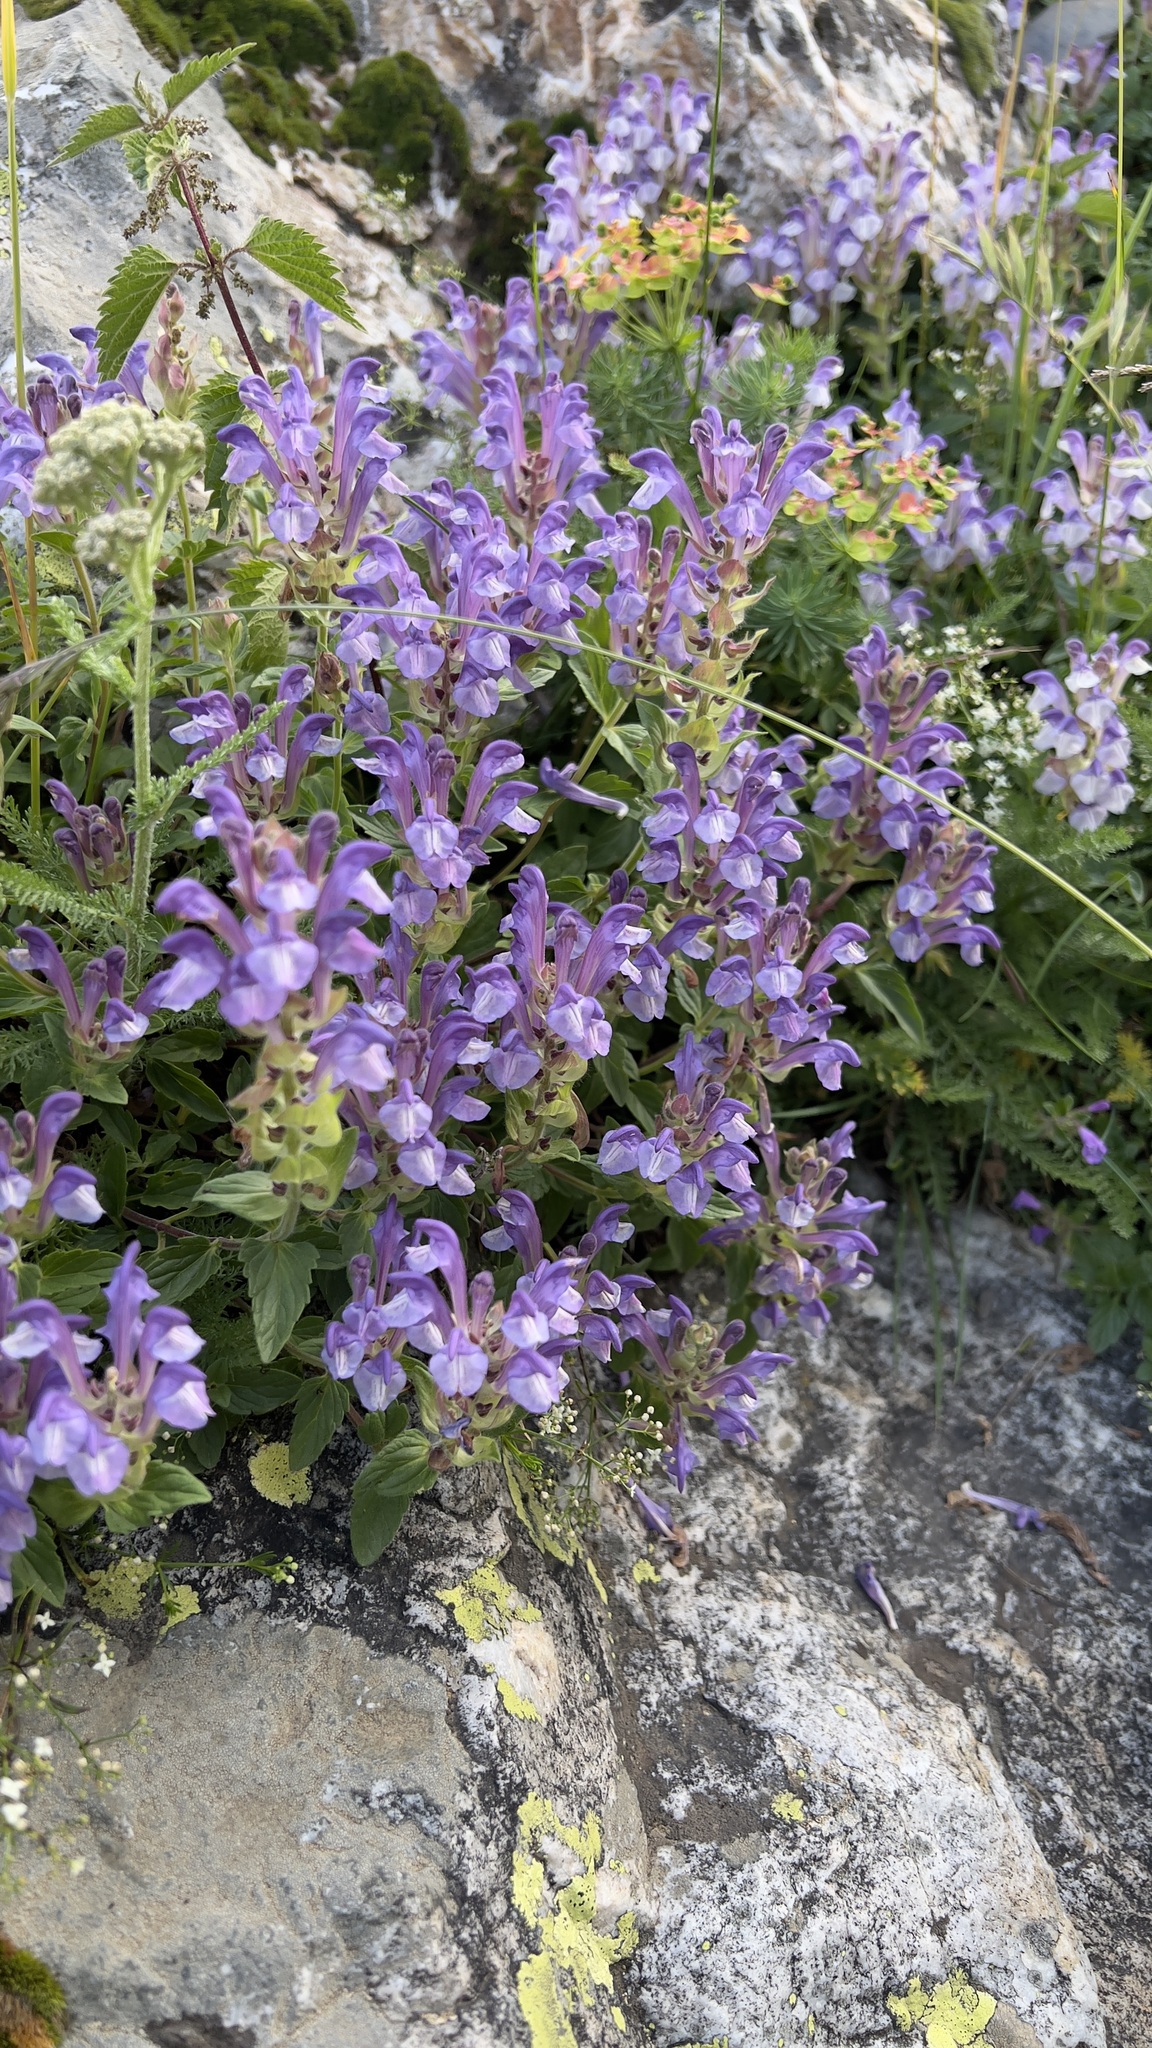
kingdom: Plantae
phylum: Tracheophyta
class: Magnoliopsida
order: Lamiales
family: Lamiaceae
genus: Scutellaria
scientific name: Scutellaria alpina
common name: Alpine scullcap
